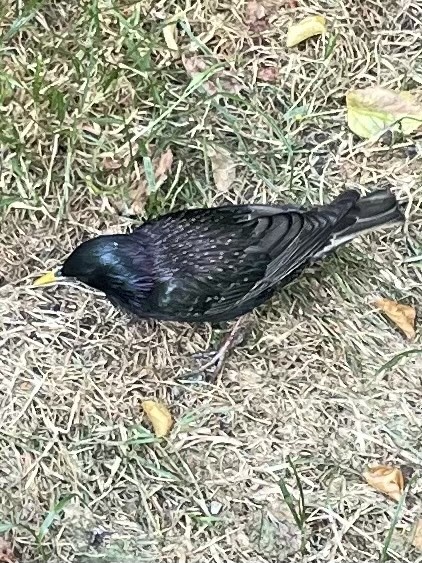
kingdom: Animalia
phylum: Chordata
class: Aves
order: Passeriformes
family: Sturnidae
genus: Sturnus
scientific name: Sturnus vulgaris
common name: Common starling
